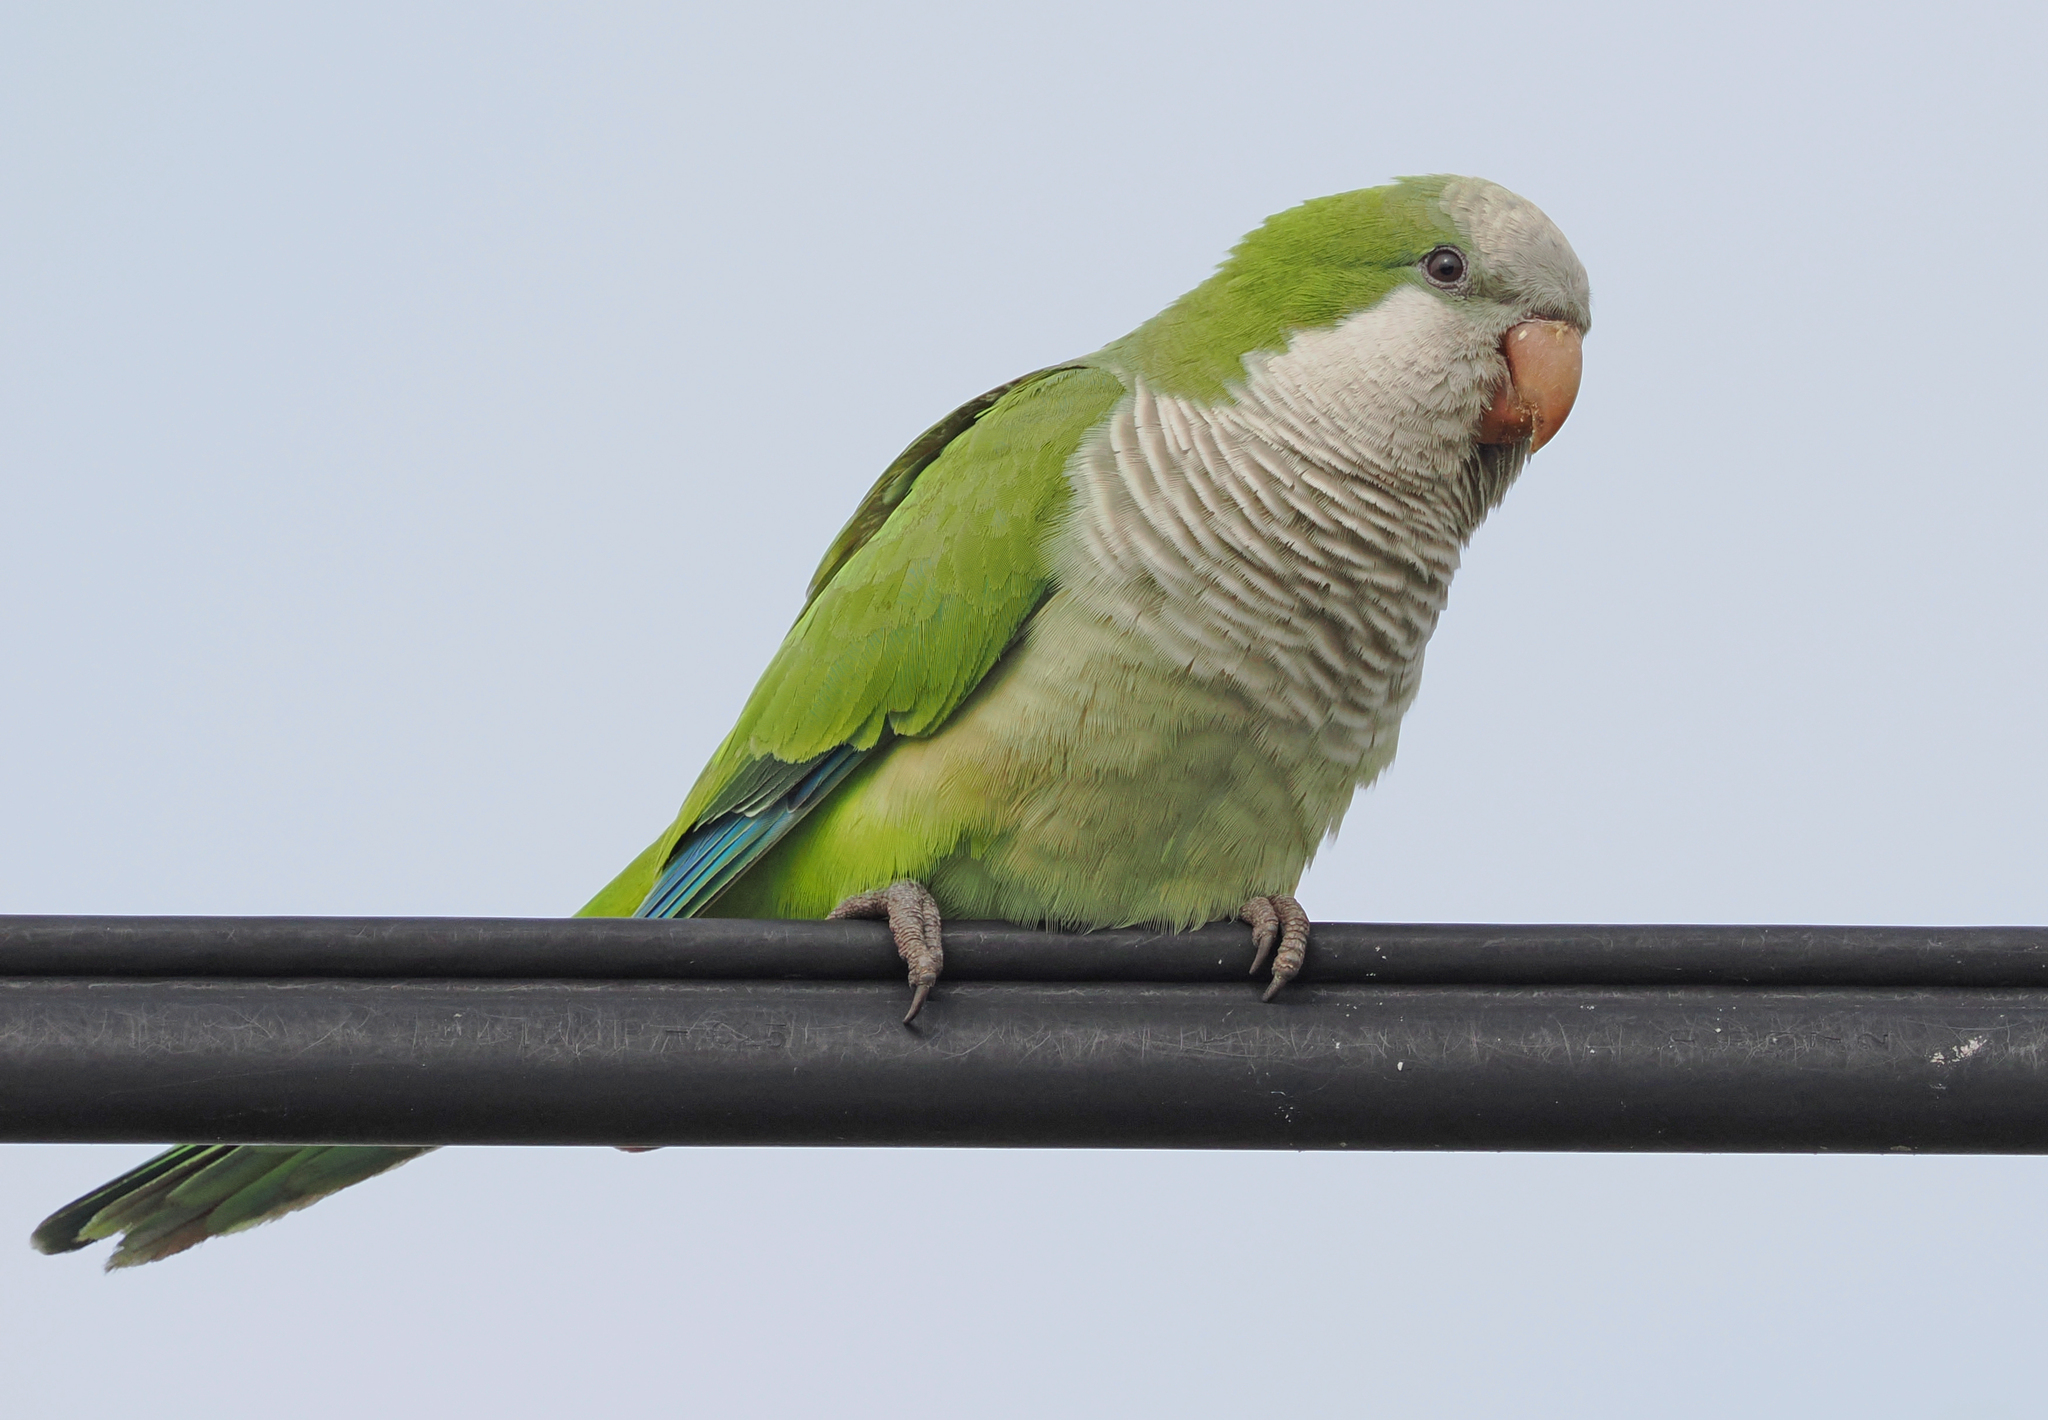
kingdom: Animalia
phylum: Chordata
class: Aves
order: Psittaciformes
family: Psittacidae
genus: Myiopsitta
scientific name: Myiopsitta monachus
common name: Monk parakeet
